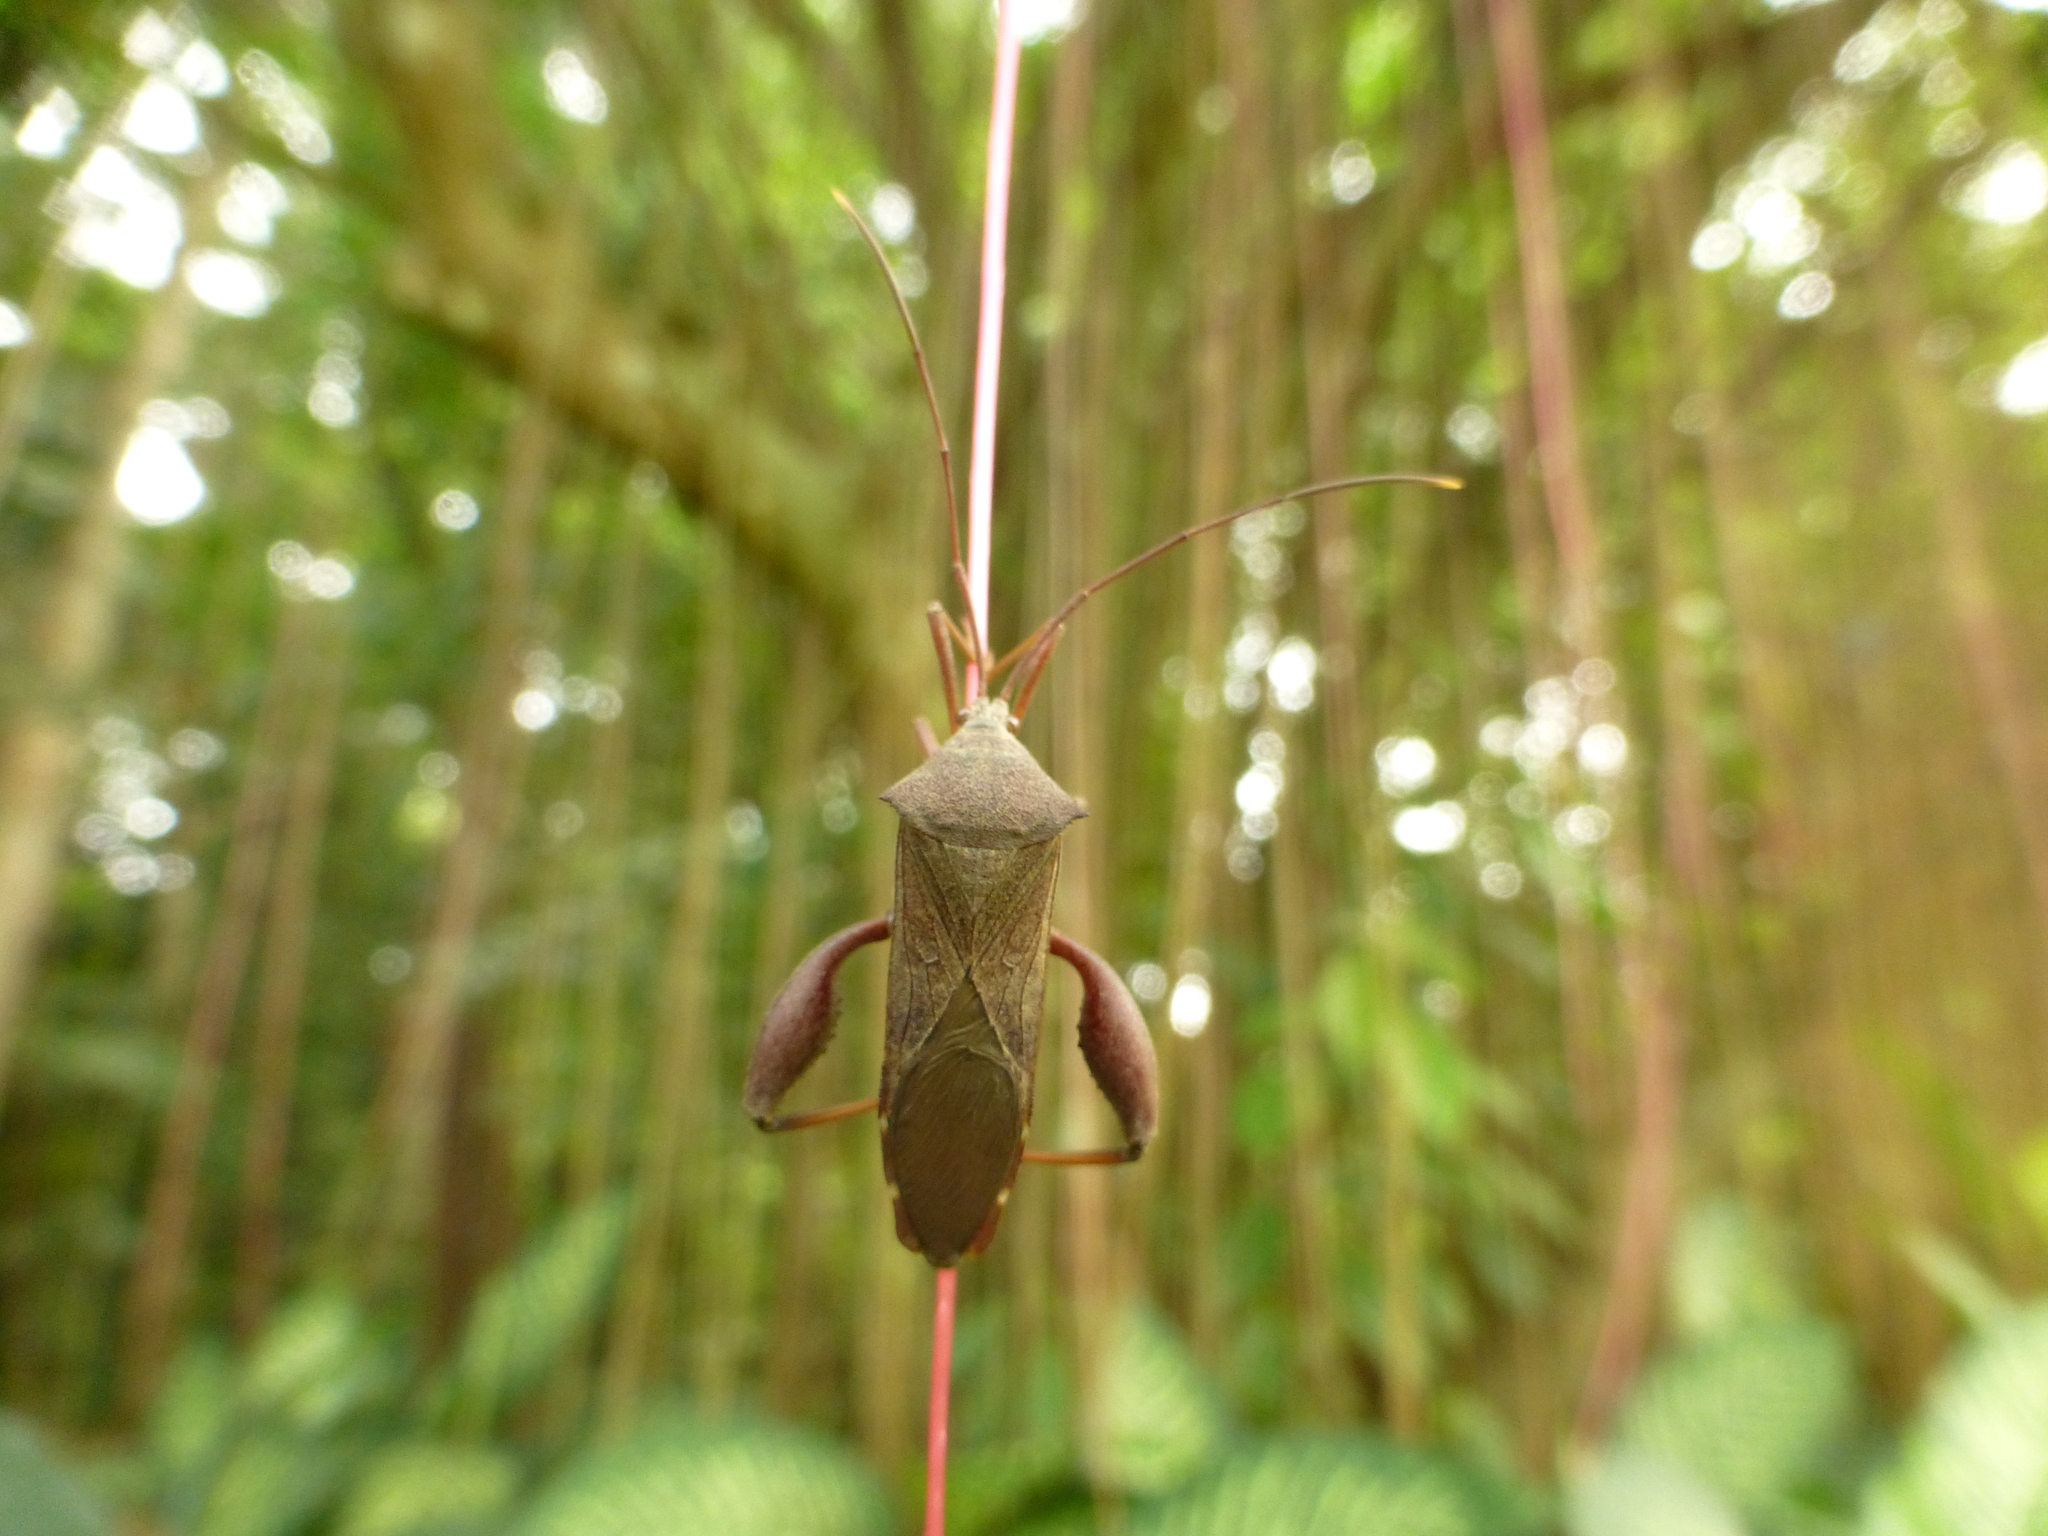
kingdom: Animalia
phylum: Arthropoda
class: Insecta
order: Hemiptera
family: Coreidae
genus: Mictis
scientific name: Mictis longicornis
